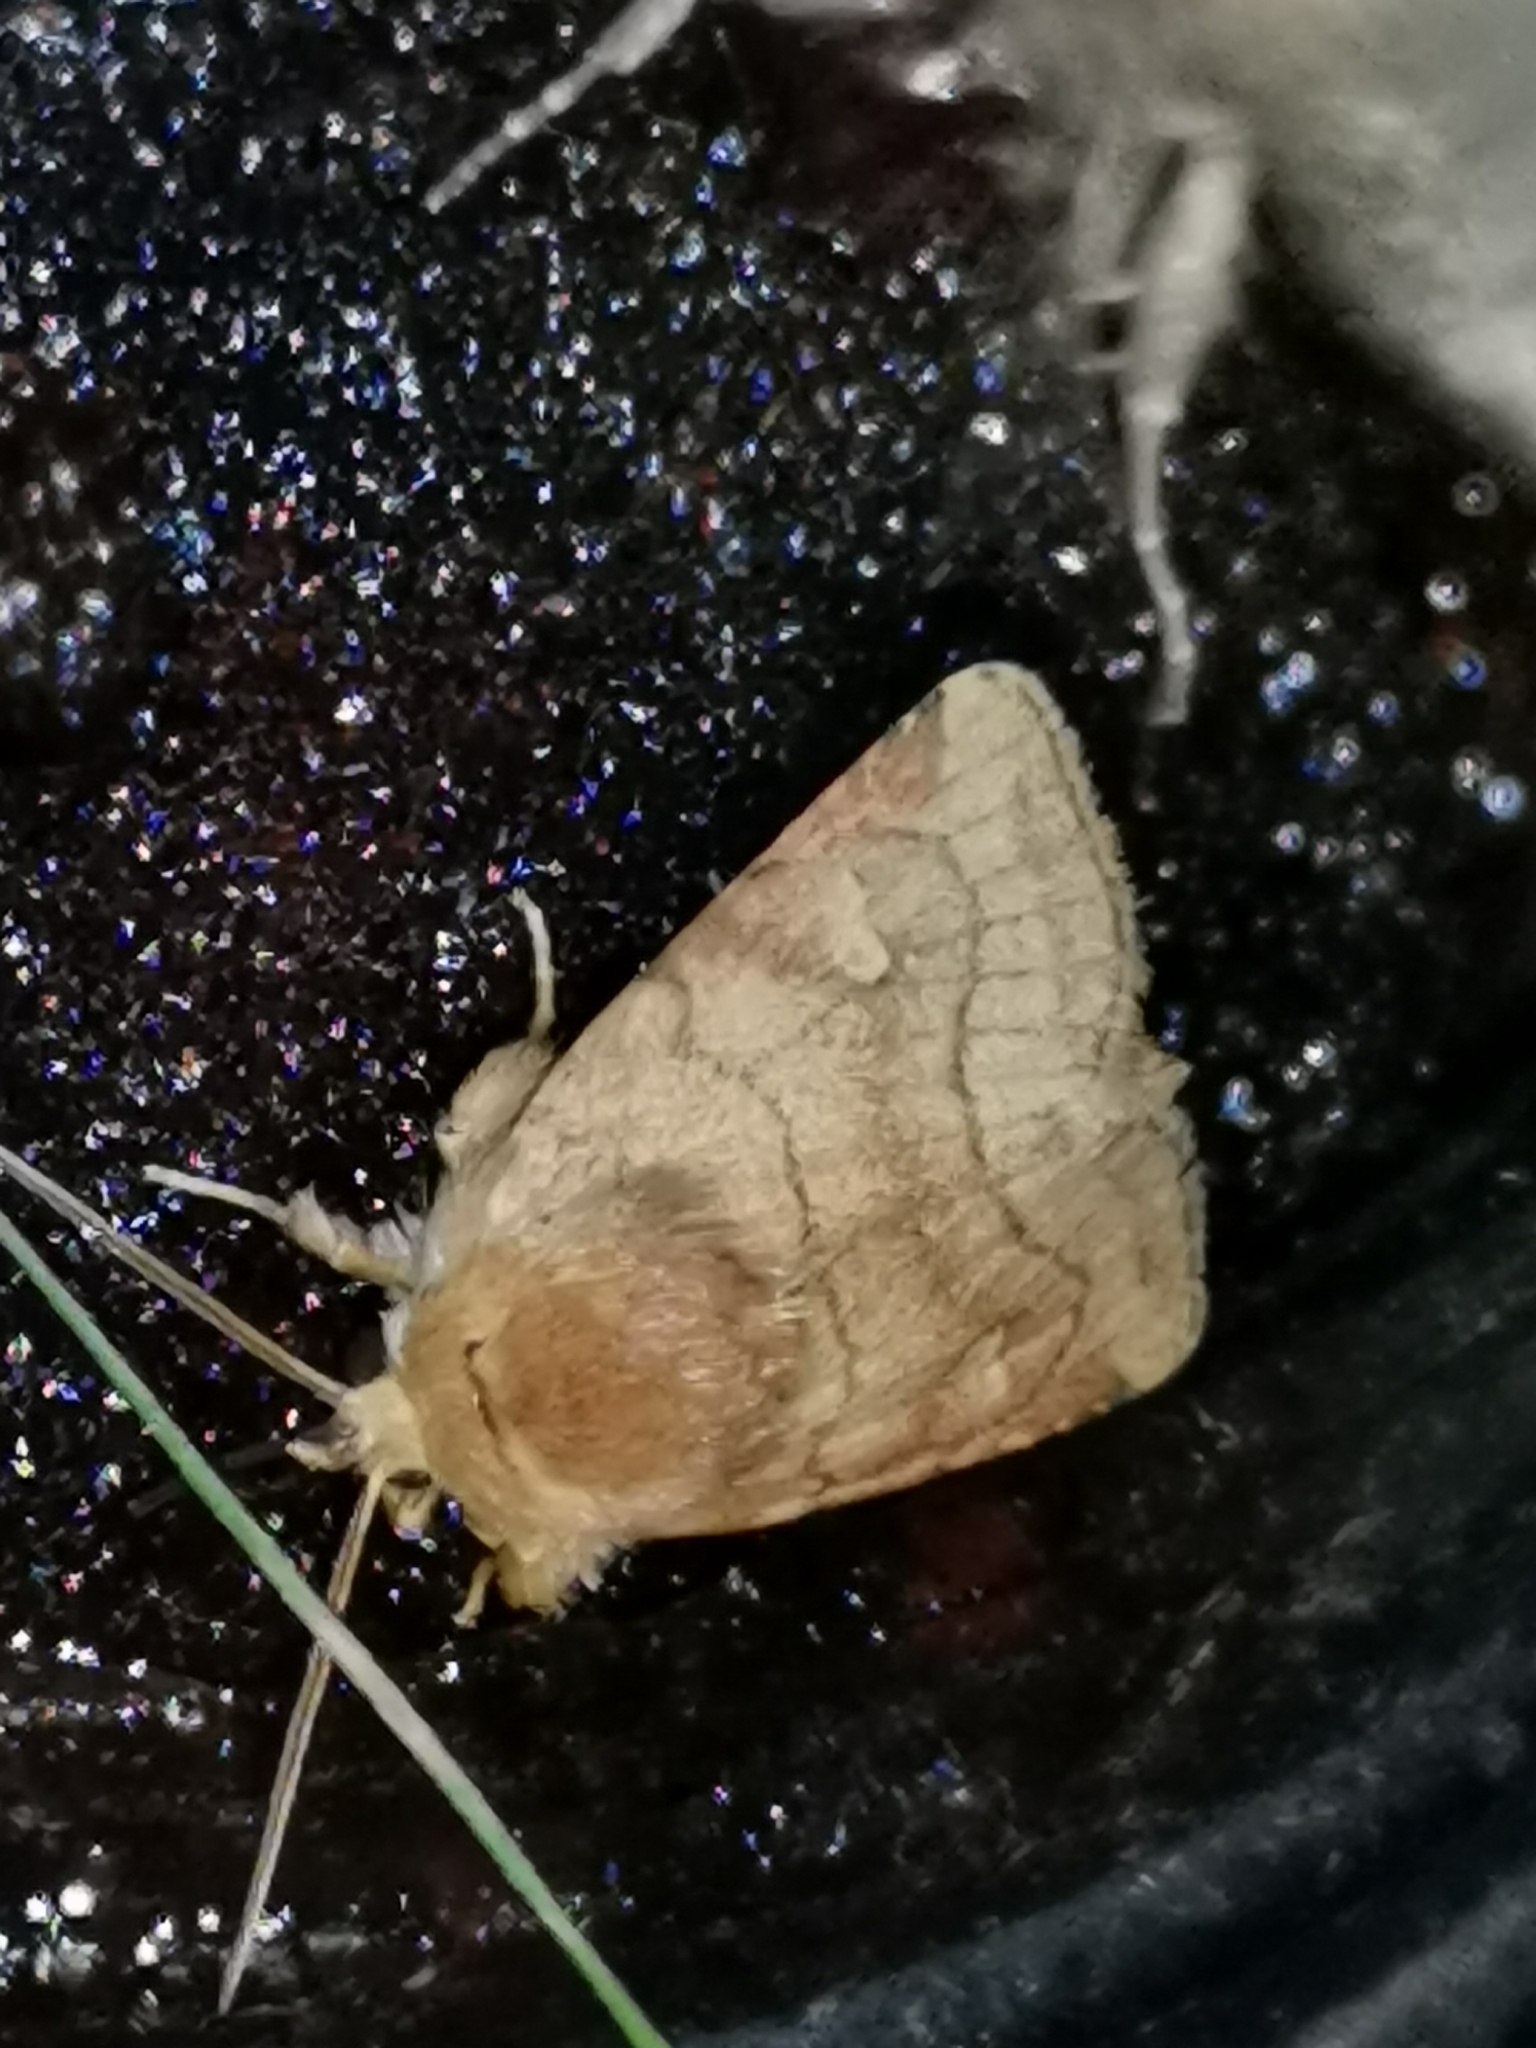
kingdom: Animalia
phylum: Arthropoda
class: Insecta
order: Lepidoptera
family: Noctuidae
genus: Lasionycta
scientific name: Lasionycta Eriopygodes imbecillus
